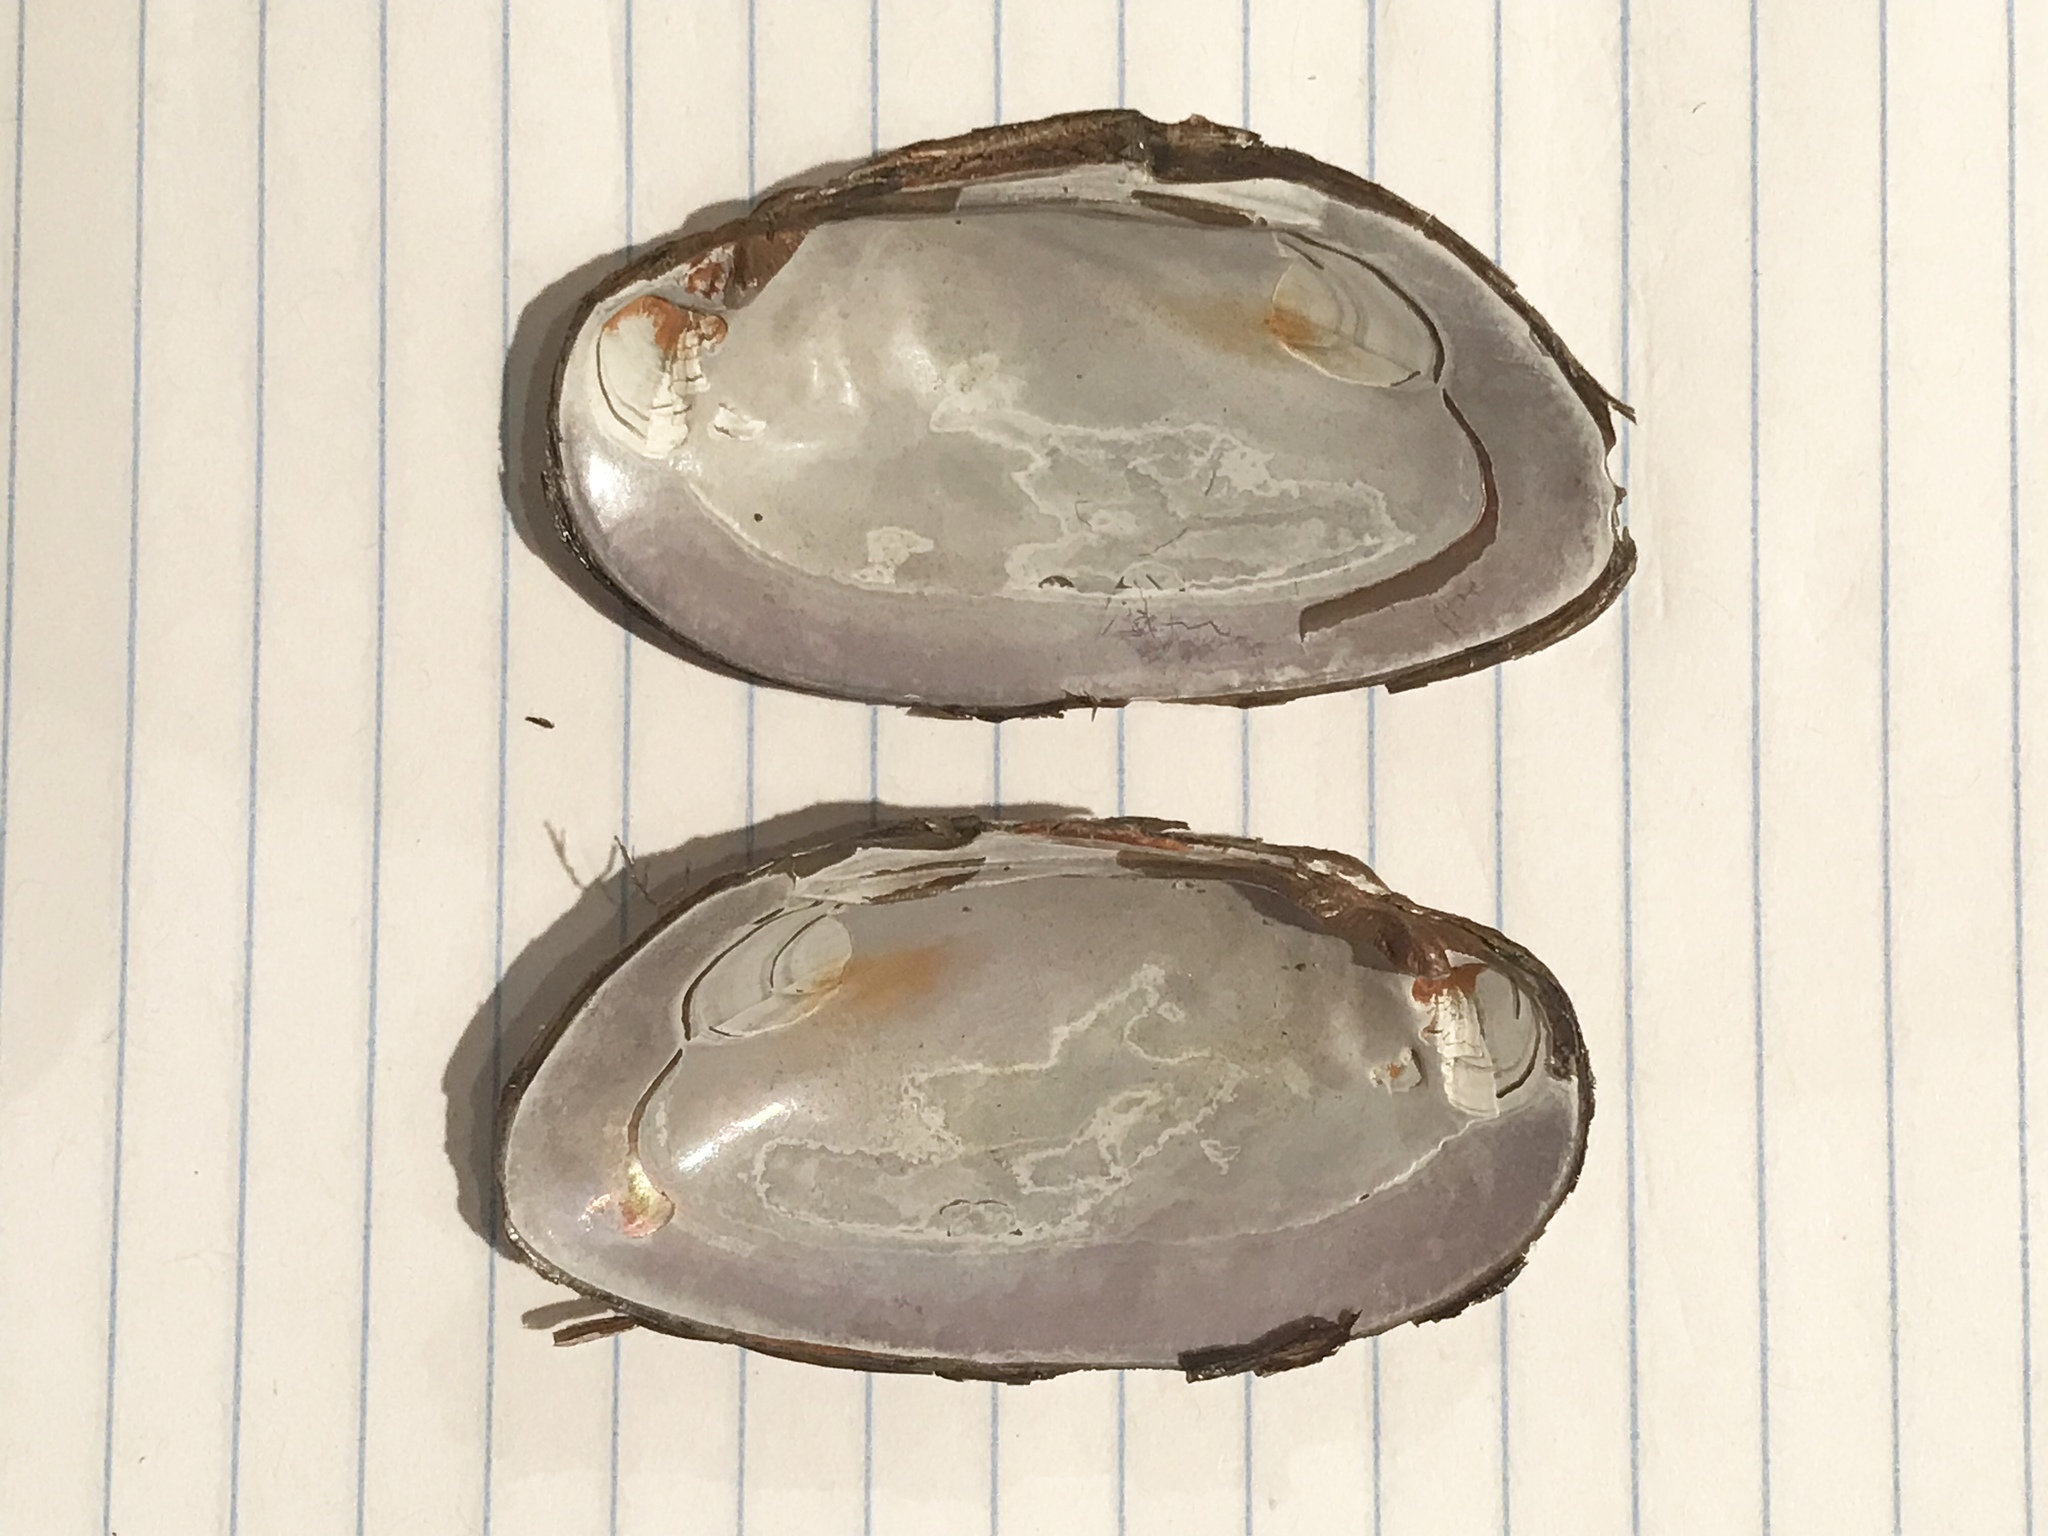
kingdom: Animalia
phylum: Mollusca
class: Bivalvia
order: Unionida
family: Unionidae
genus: Elliptio
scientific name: Elliptio complanata
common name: Eastern elliptio
